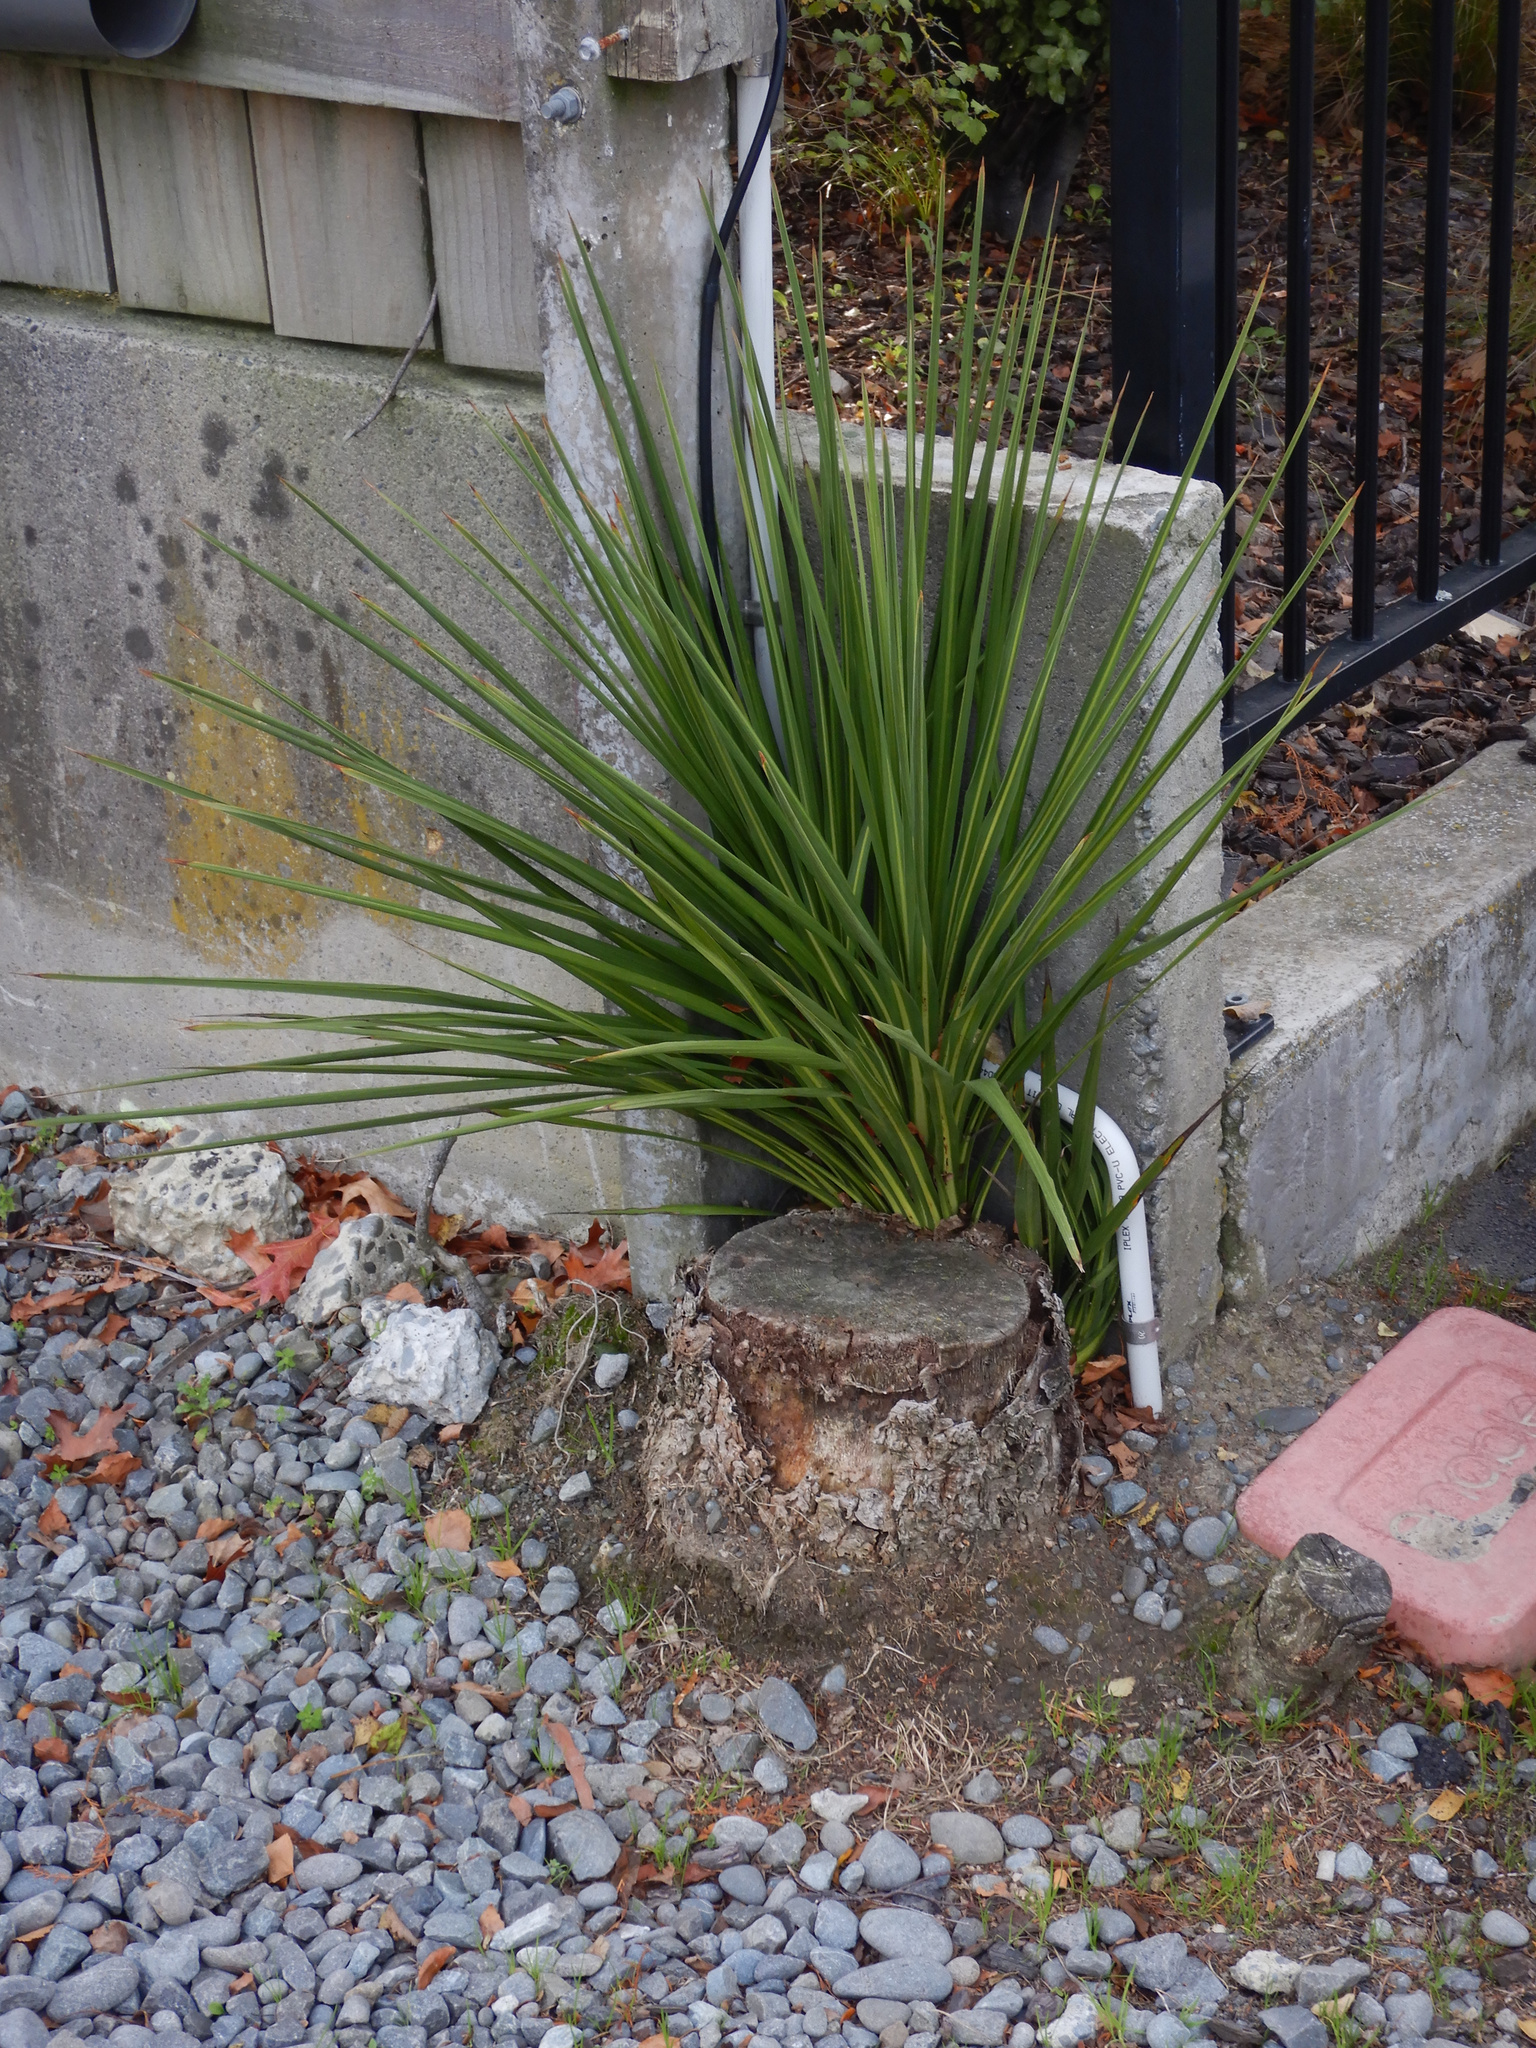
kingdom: Plantae
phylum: Tracheophyta
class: Liliopsida
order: Asparagales
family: Asparagaceae
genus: Cordyline
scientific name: Cordyline australis
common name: Cabbage-palm
